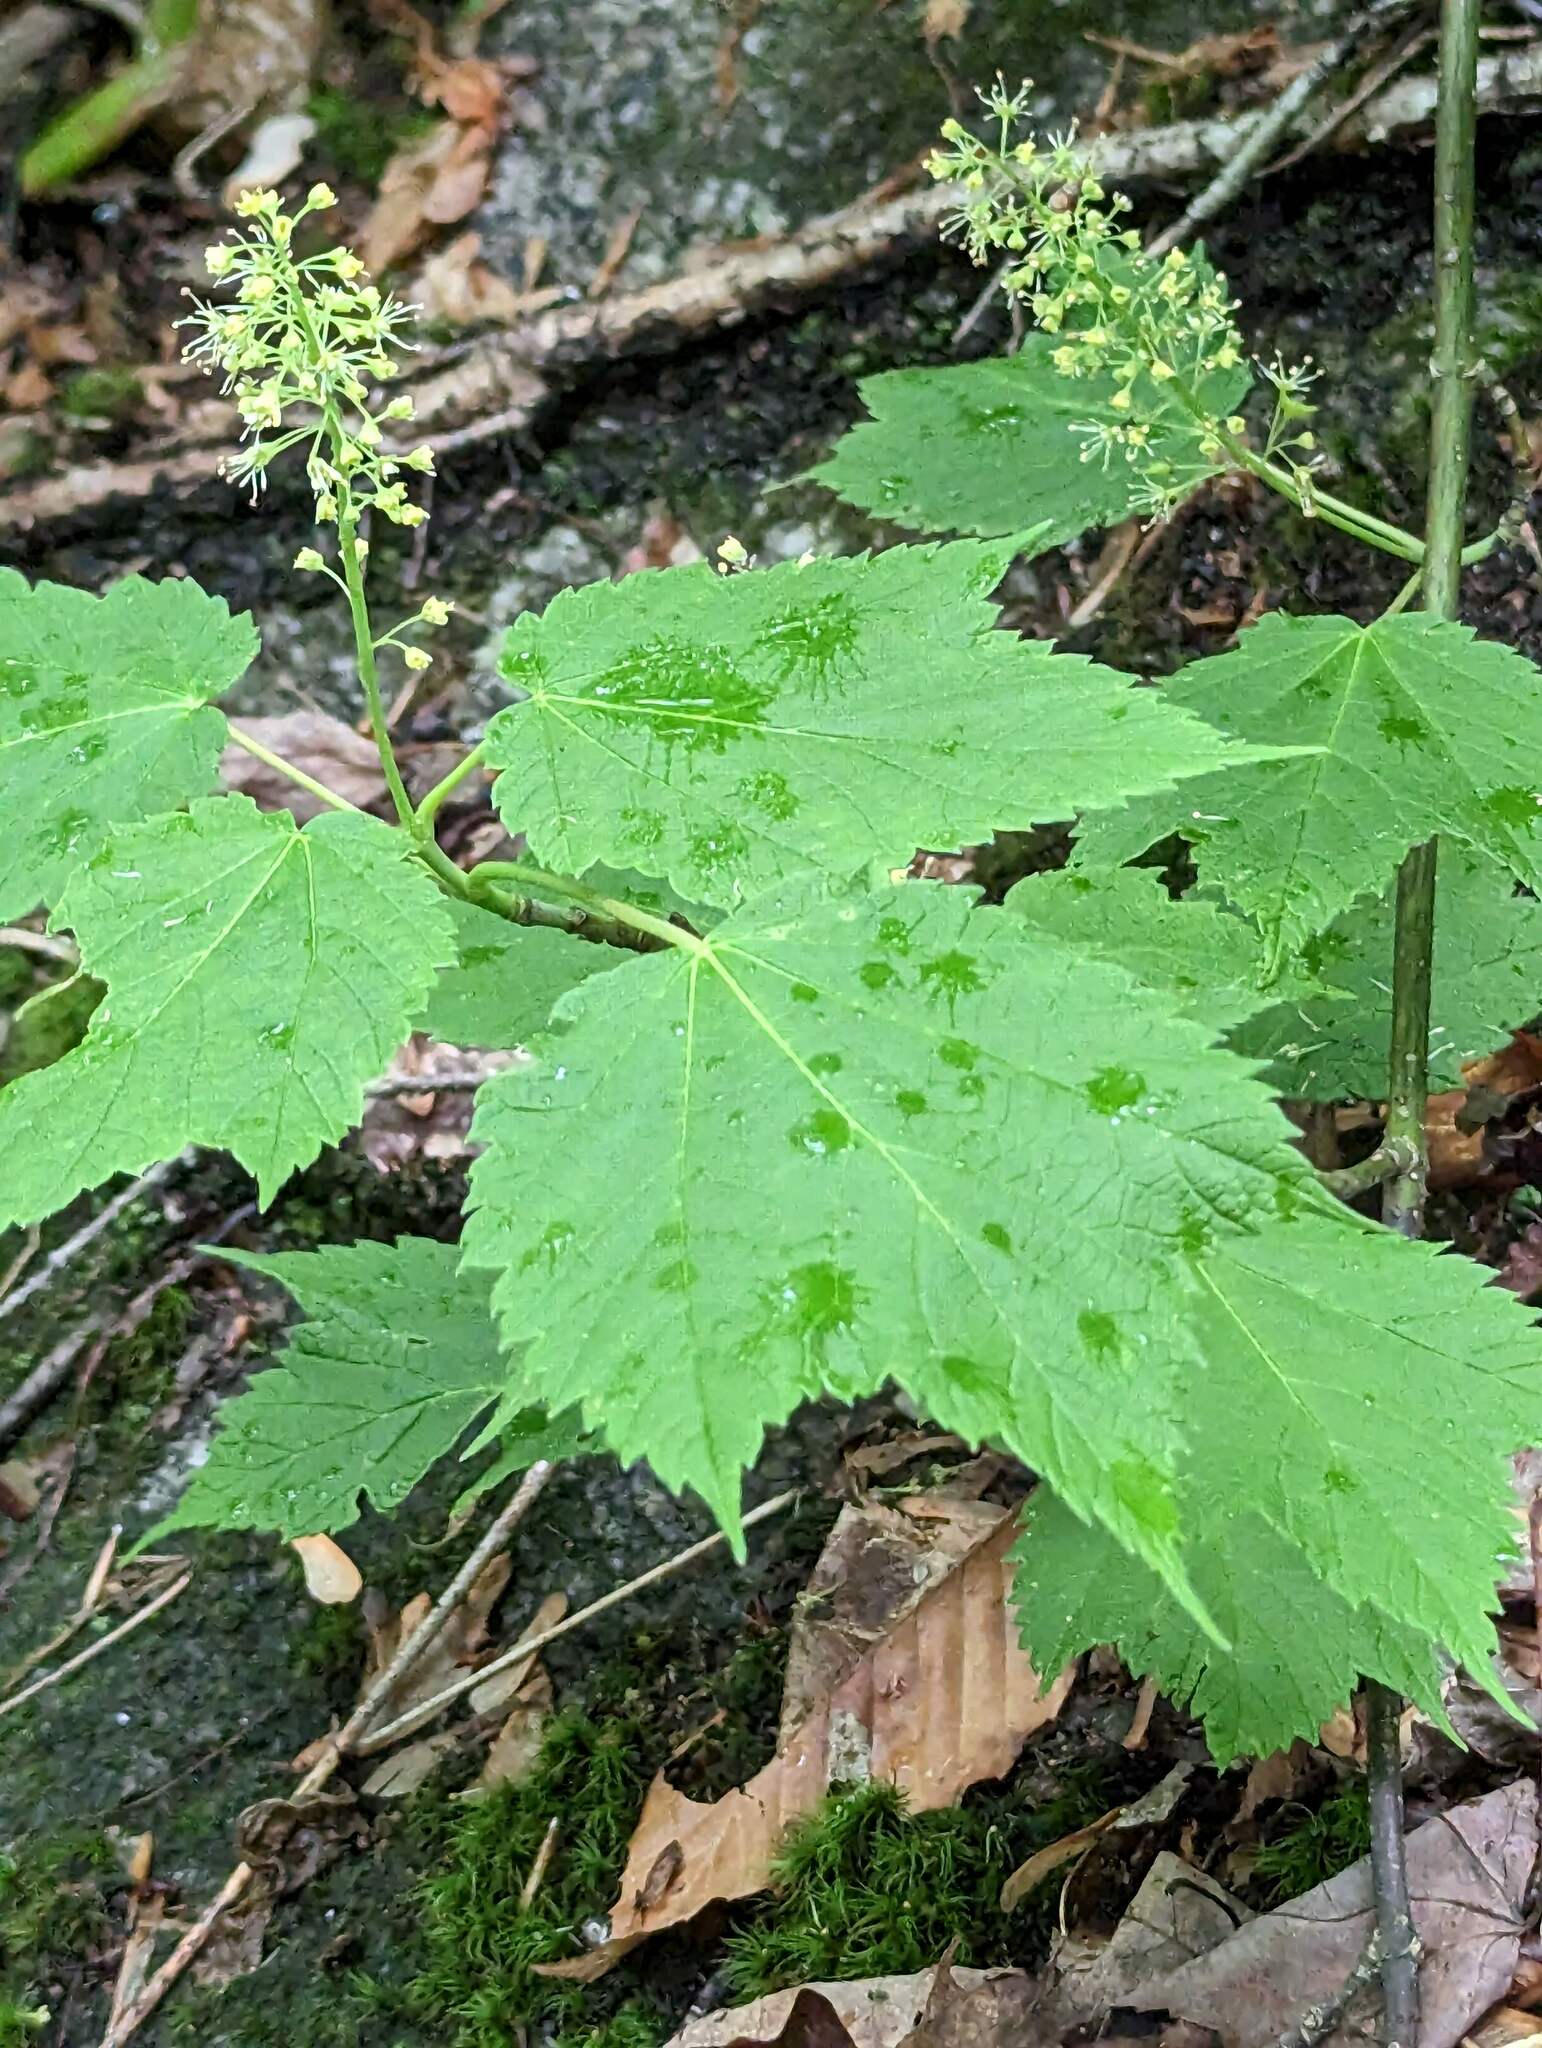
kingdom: Plantae
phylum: Tracheophyta
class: Magnoliopsida
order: Sapindales
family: Sapindaceae
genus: Acer
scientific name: Acer spicatum
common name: Mountain maple
